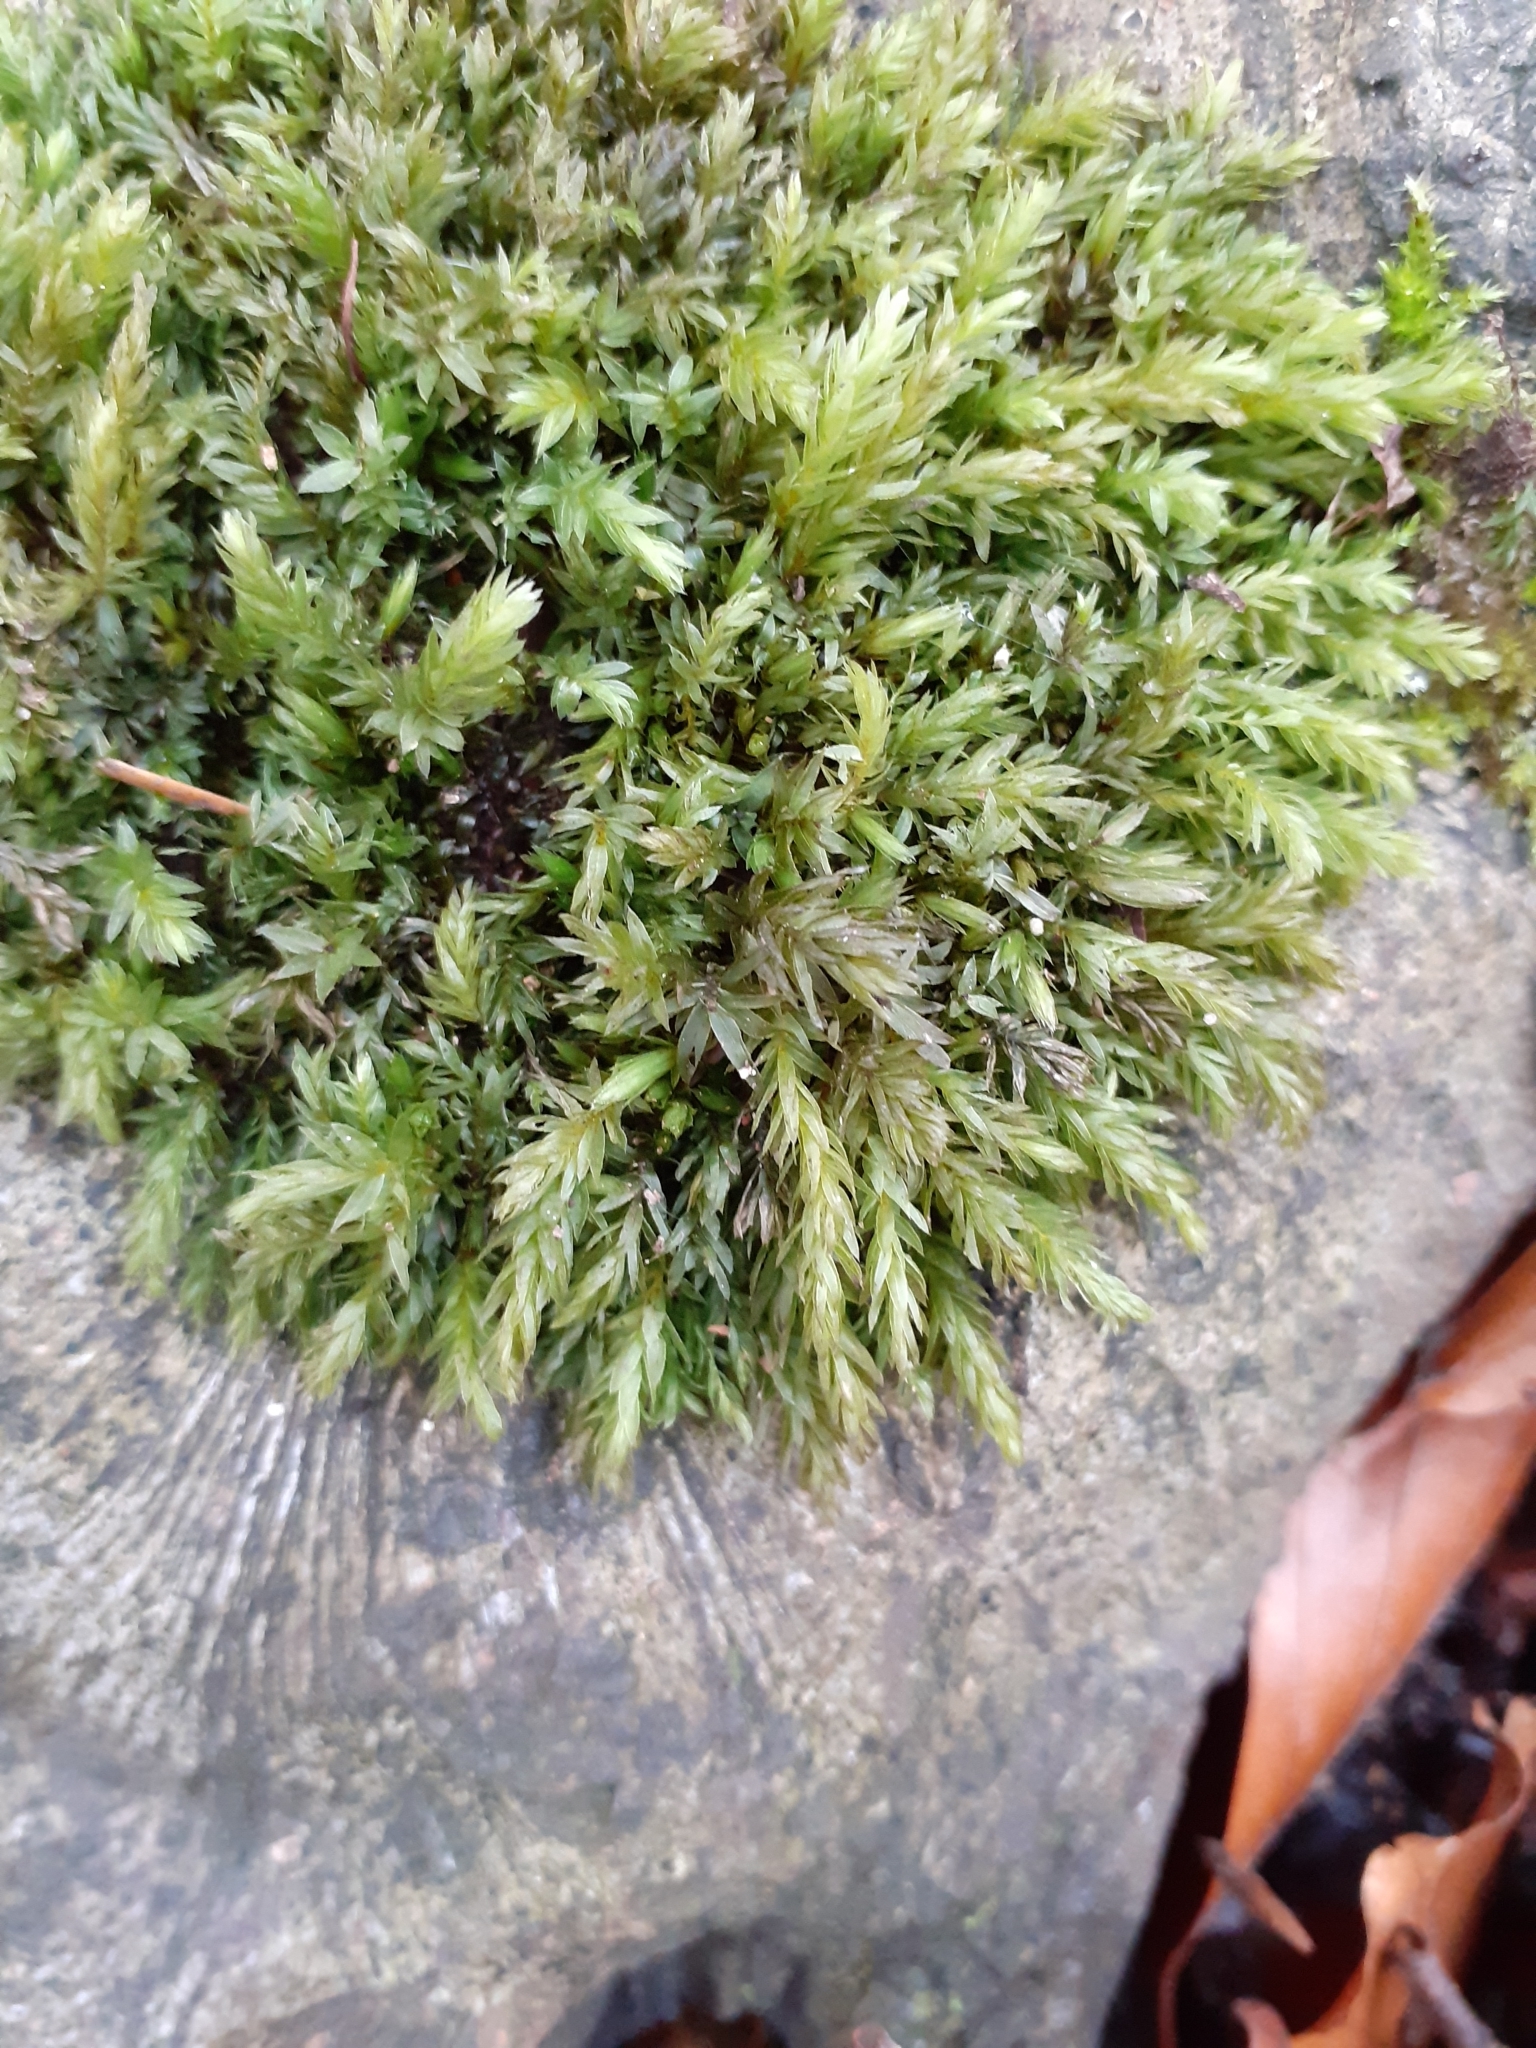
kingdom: Plantae
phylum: Bryophyta
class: Bryopsida
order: Bryales
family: Mniaceae
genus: Mnium
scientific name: Mnium hornum
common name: Swan's-neck leafy moss
